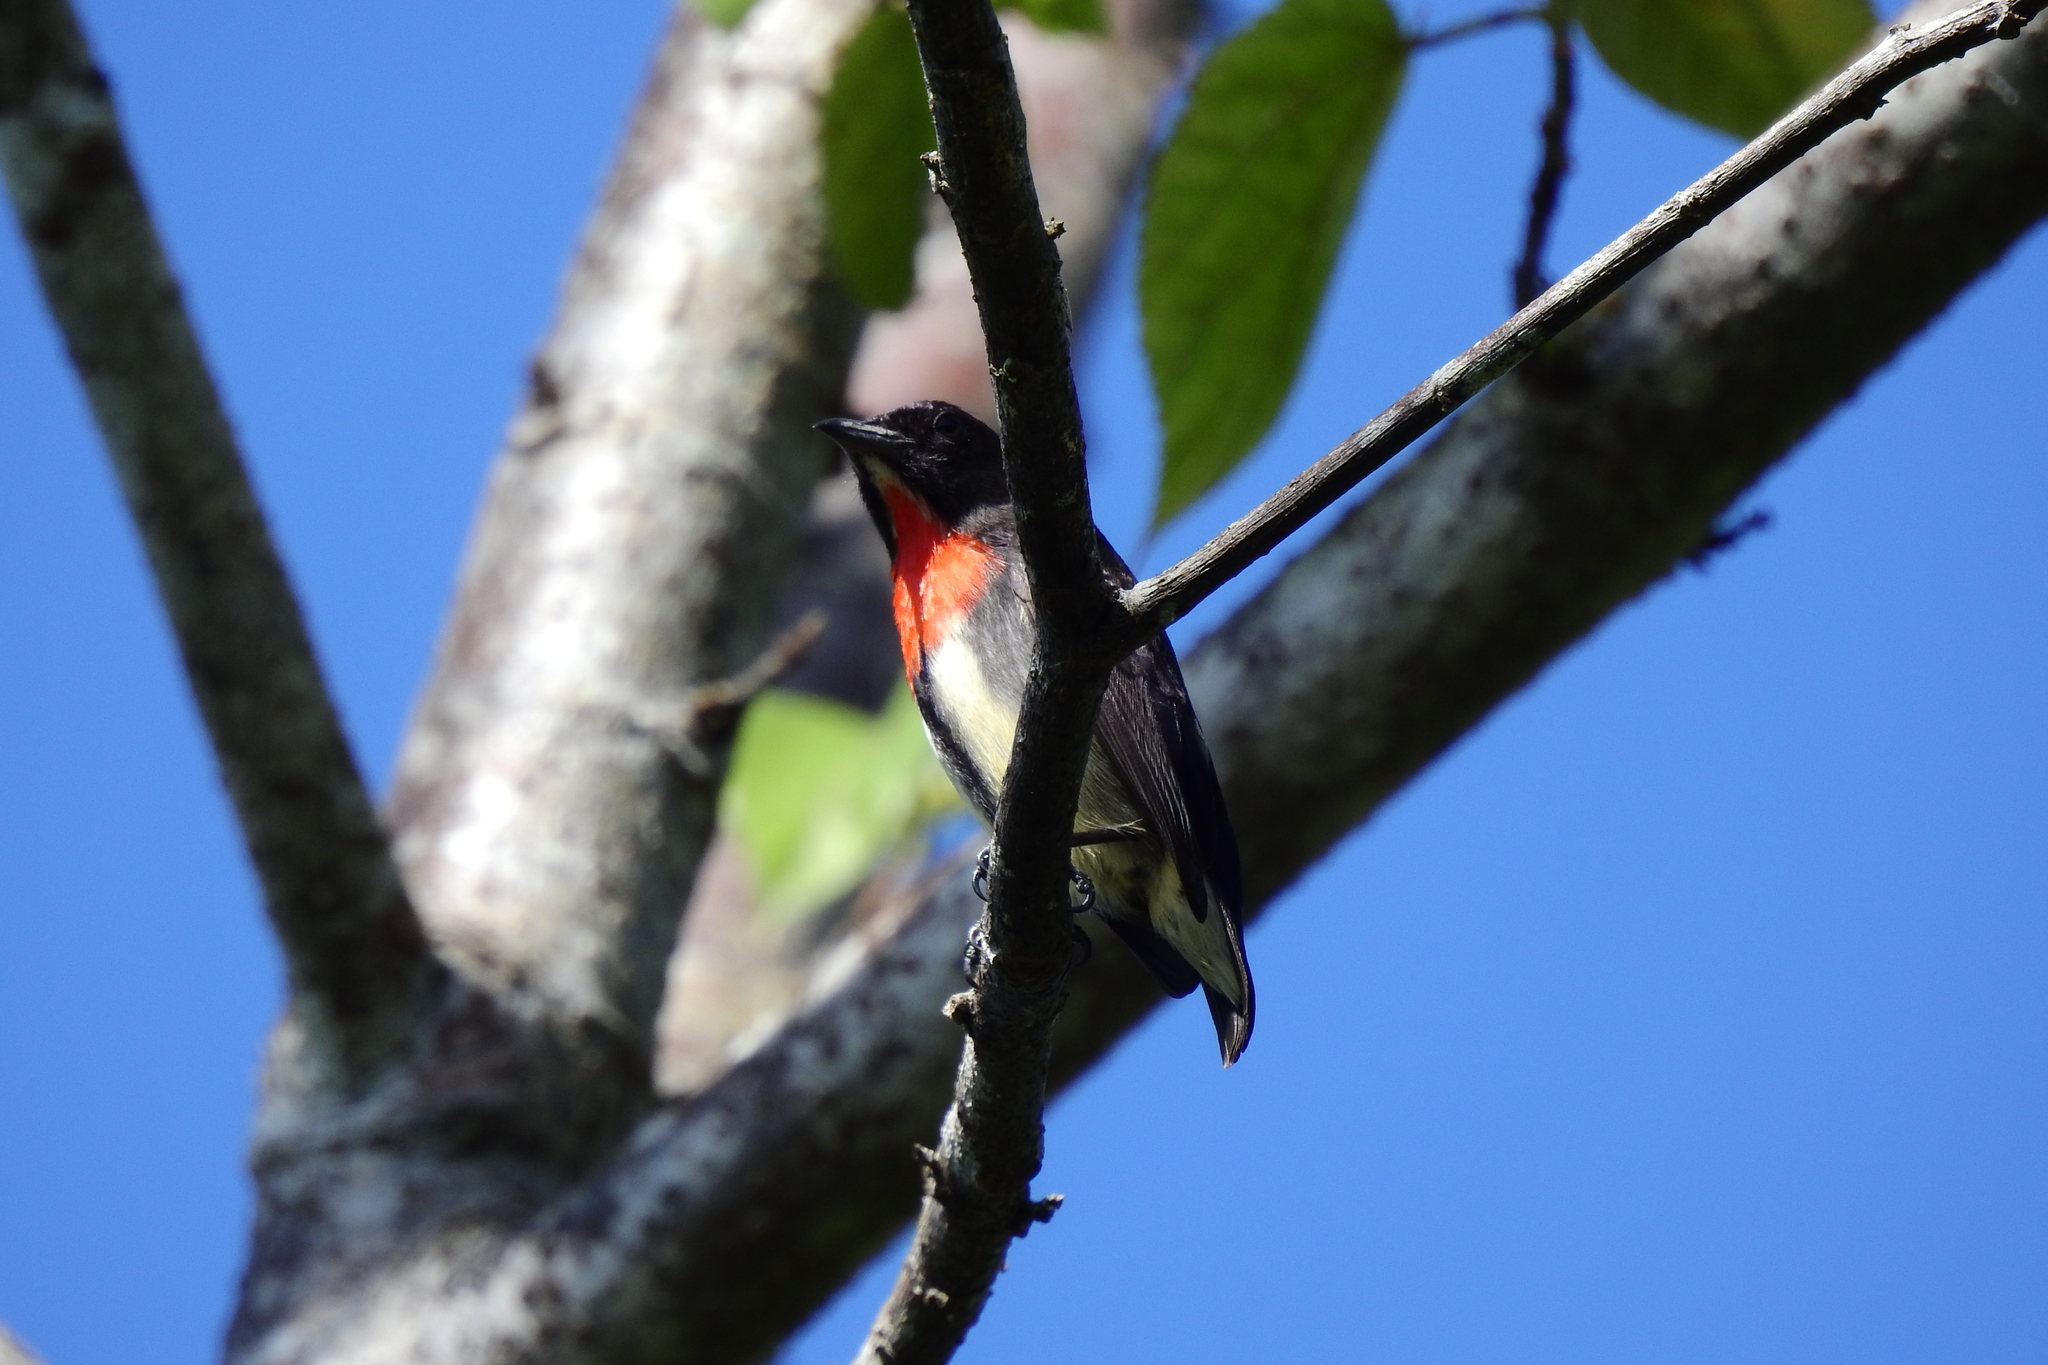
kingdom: Animalia
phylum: Chordata
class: Aves
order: Passeriformes
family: Dicaeidae
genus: Dicaeum
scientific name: Dicaeum celebicum
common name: Grey-sided flowerpecker
